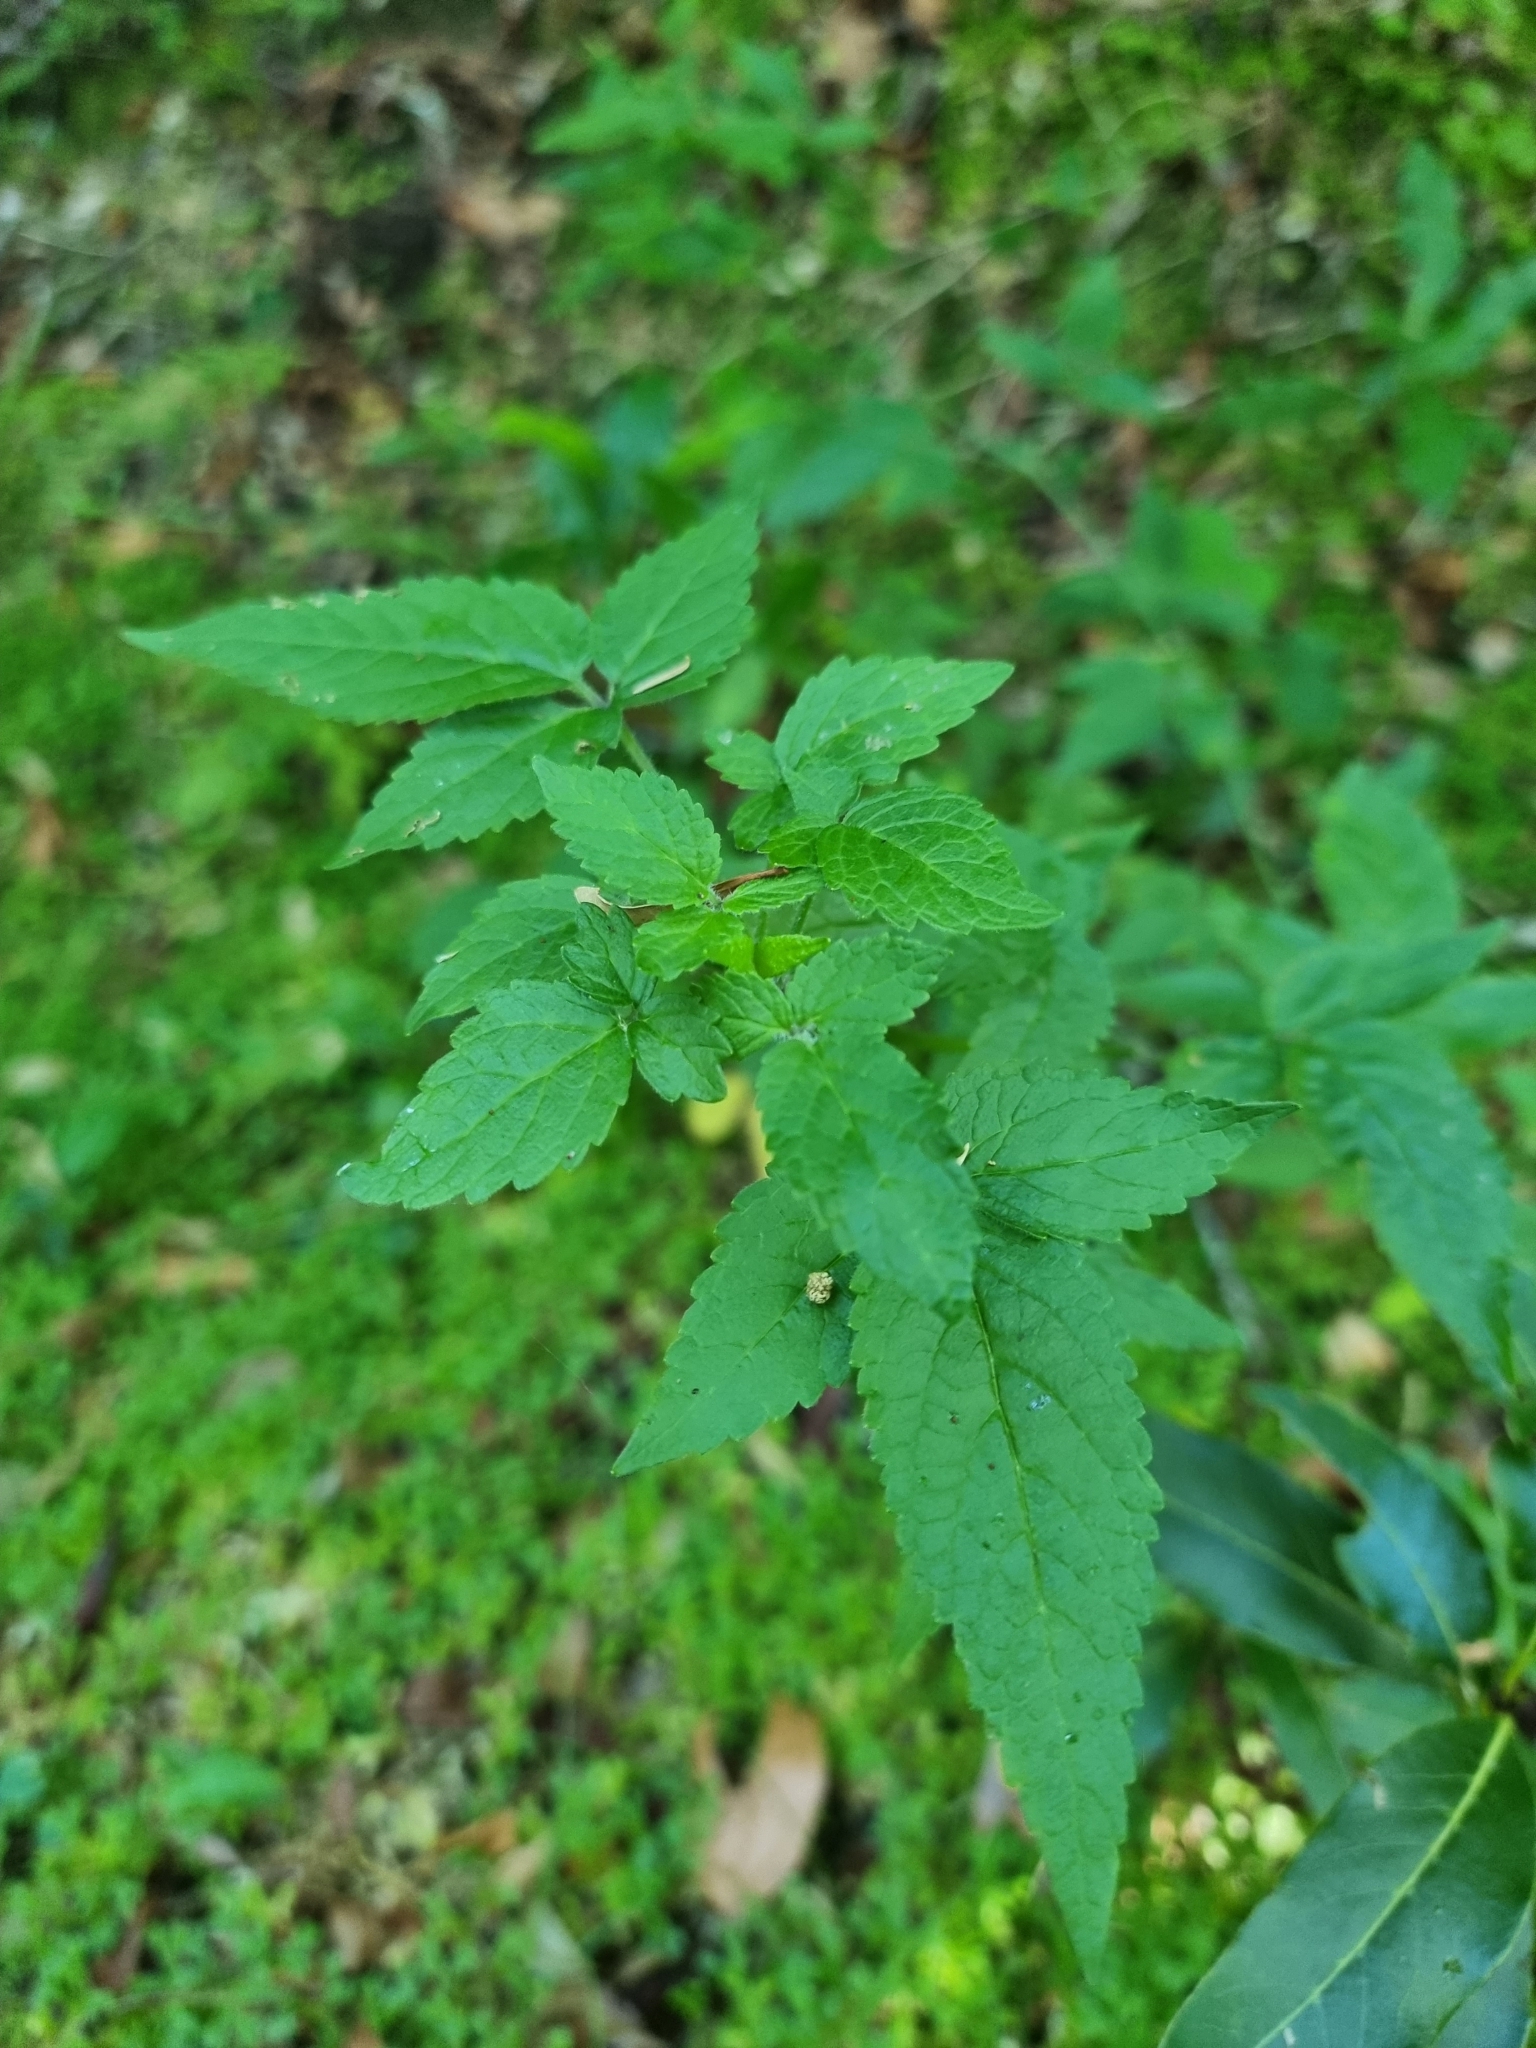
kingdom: Plantae
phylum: Tracheophyta
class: Magnoliopsida
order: Lamiales
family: Lamiaceae
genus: Cedronella
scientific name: Cedronella canariensis
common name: Canary islands balm
